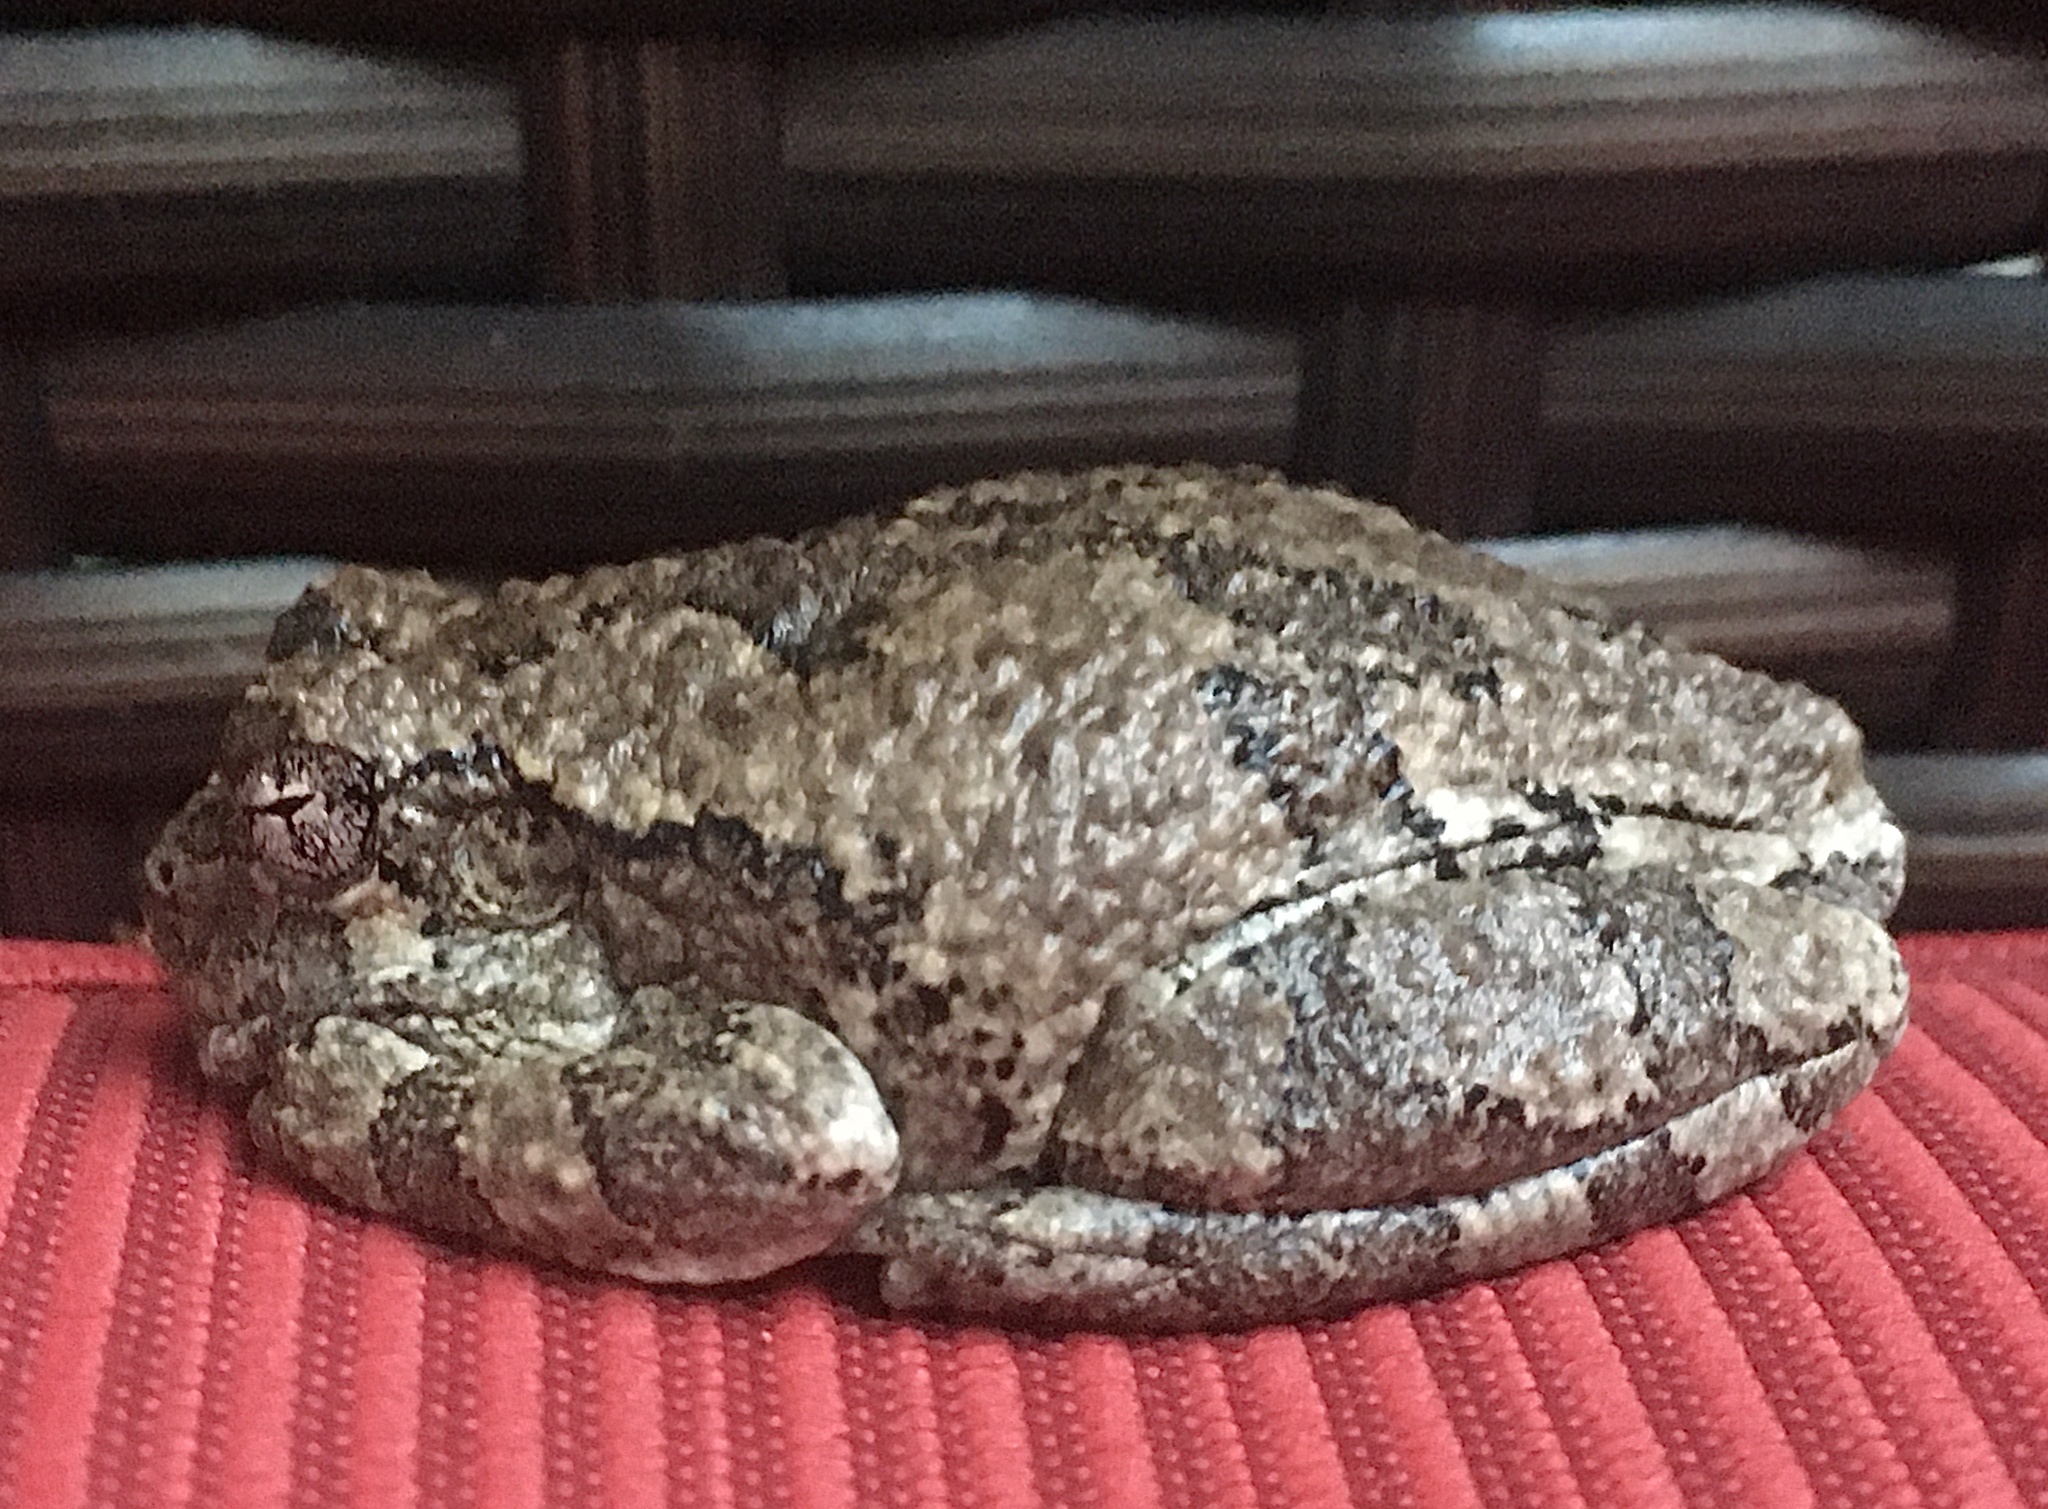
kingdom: Animalia
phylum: Chordata
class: Amphibia
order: Anura
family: Hylidae
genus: Hyla
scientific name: Hyla
